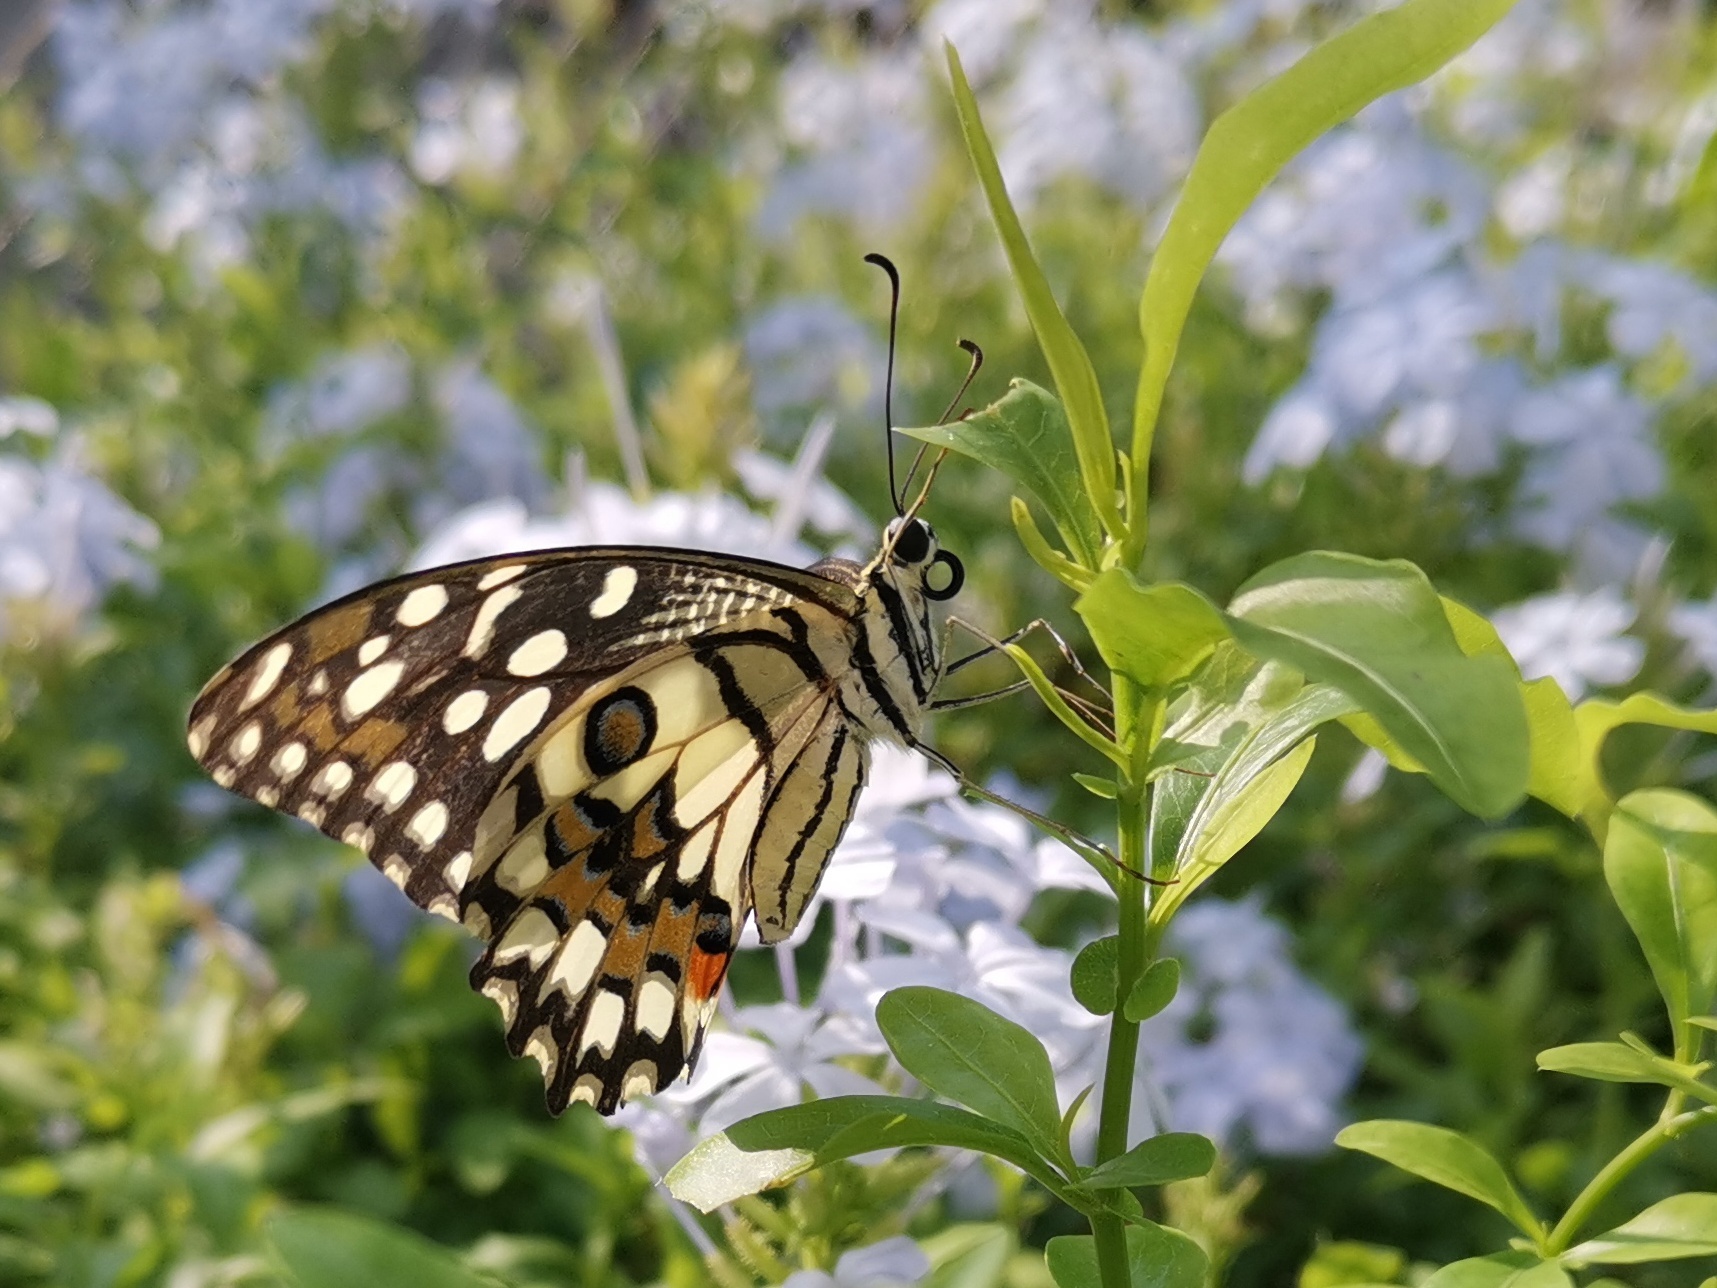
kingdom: Animalia
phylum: Arthropoda
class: Insecta
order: Lepidoptera
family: Papilionidae
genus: Papilio
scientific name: Papilio demoleus
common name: Lime butterfly
